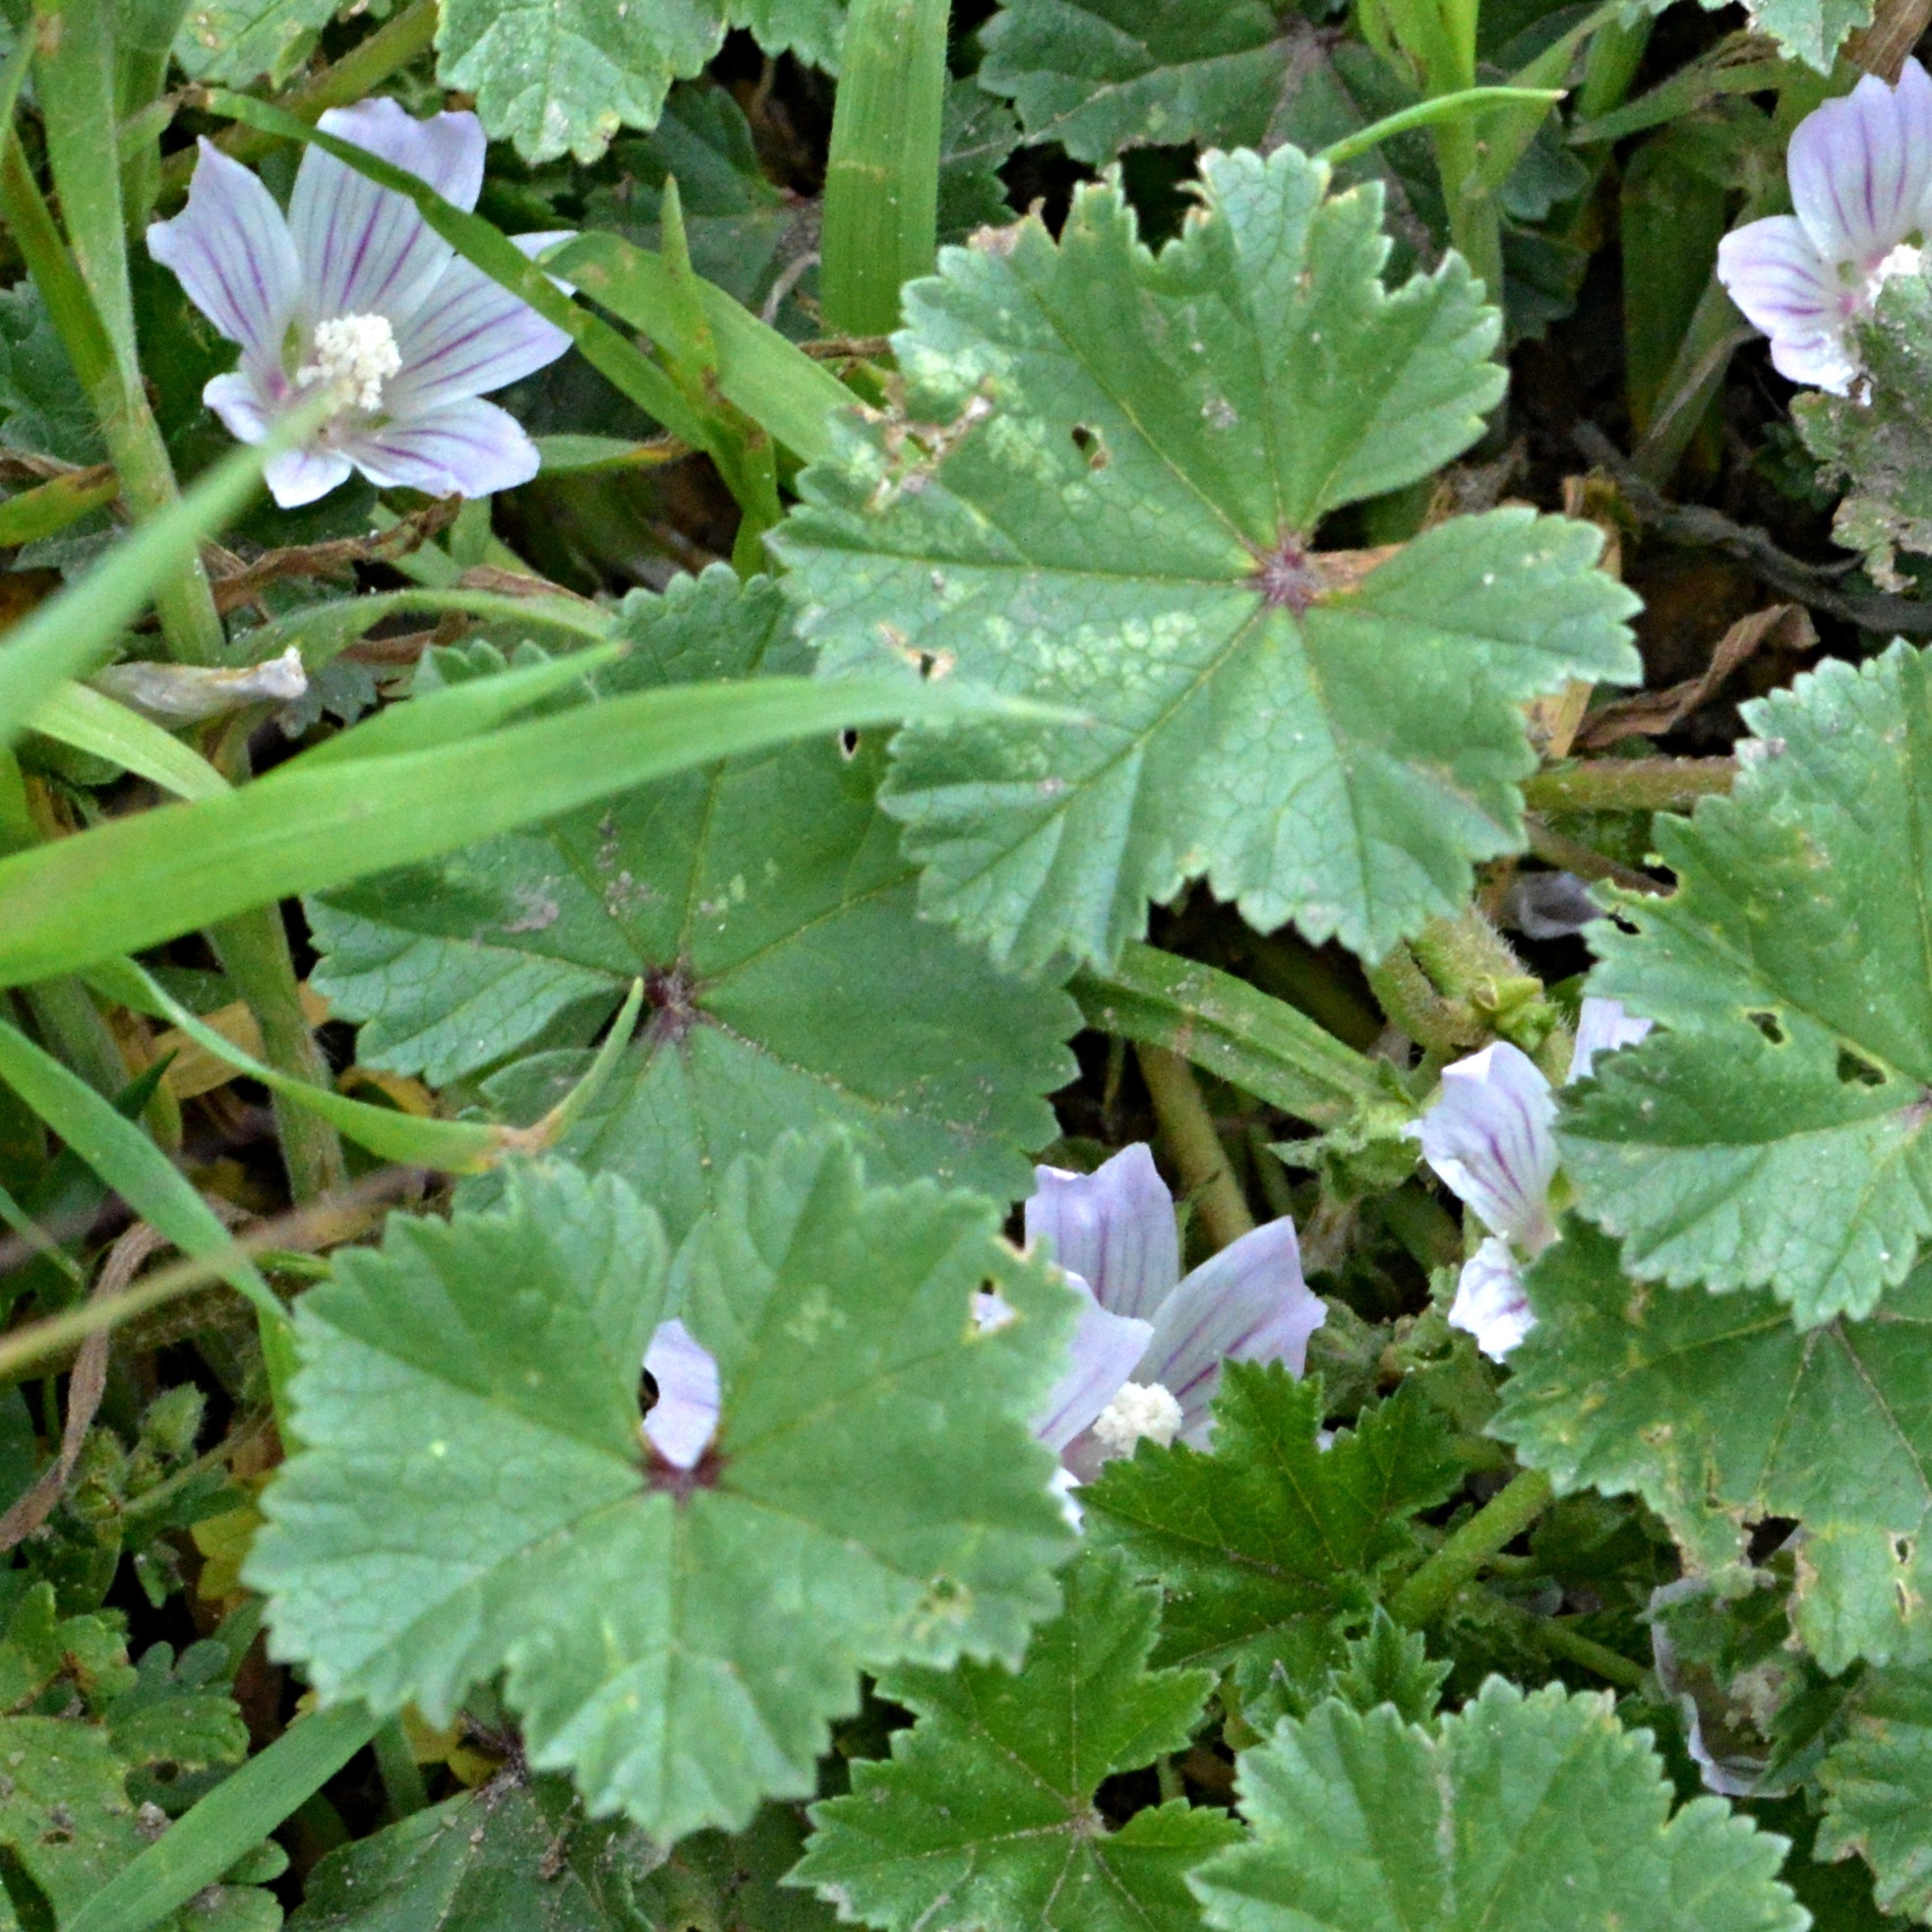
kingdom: Plantae
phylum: Tracheophyta
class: Magnoliopsida
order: Malvales
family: Malvaceae
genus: Malva
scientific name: Malva neglecta
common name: Common mallow
